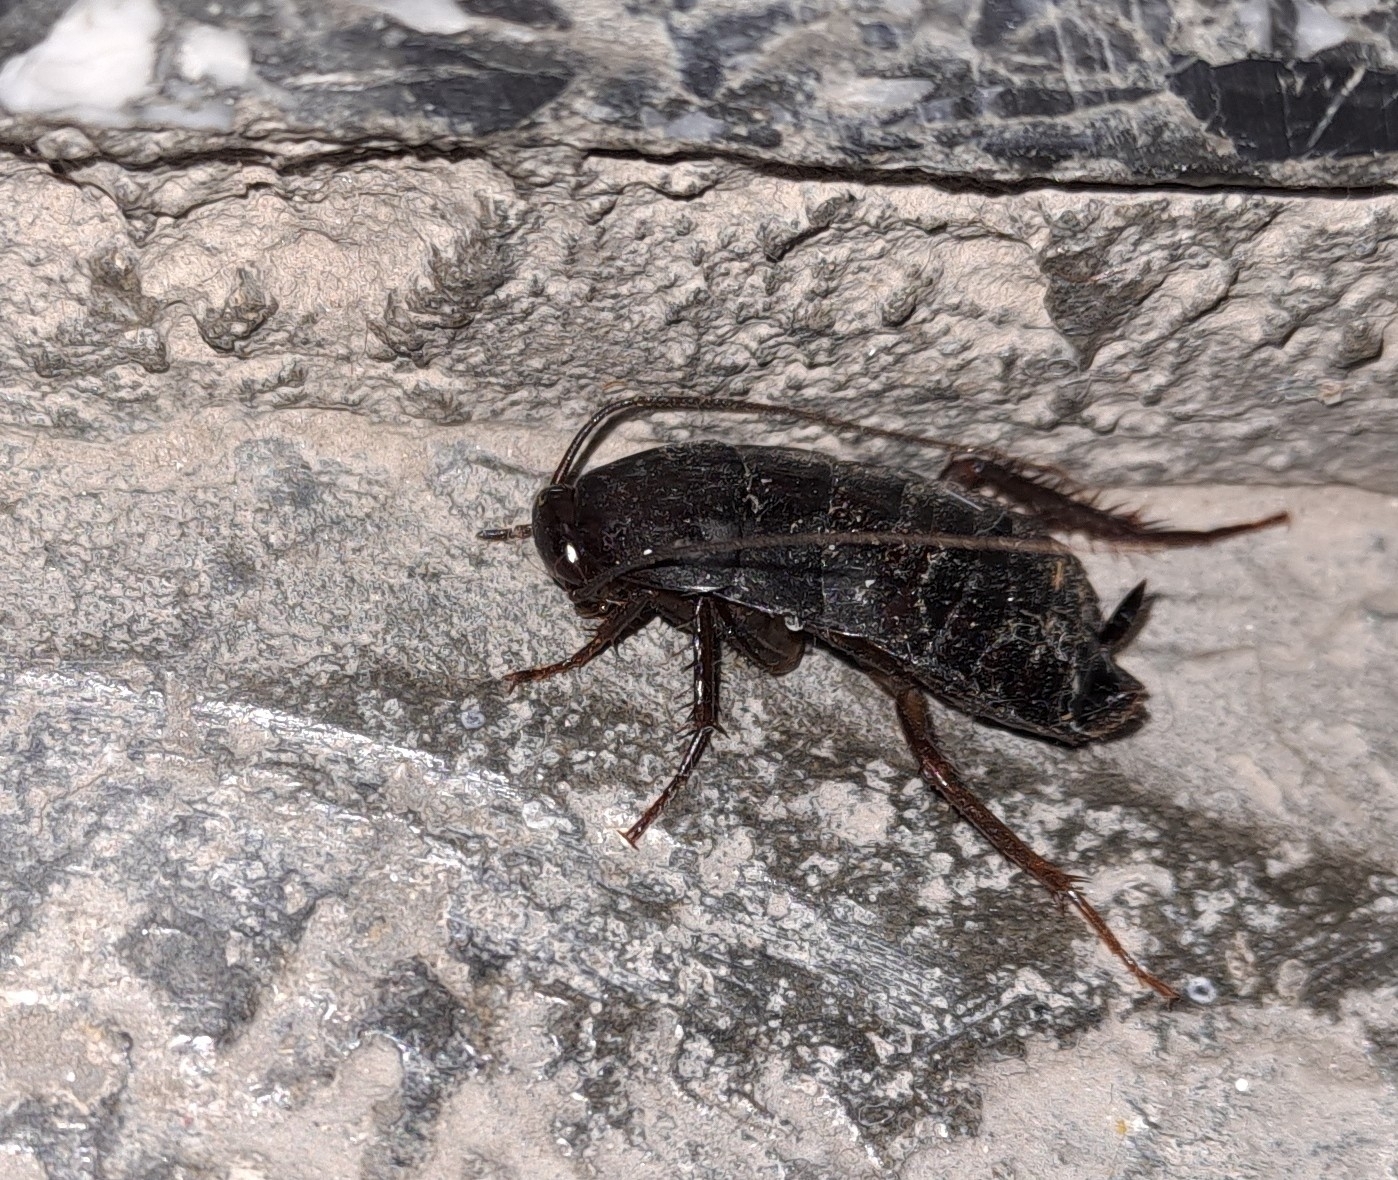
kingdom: Animalia
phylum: Arthropoda
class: Insecta
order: Blattodea
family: Blattidae
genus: Blatta
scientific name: Blatta orientalis
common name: Oriental cockroach
